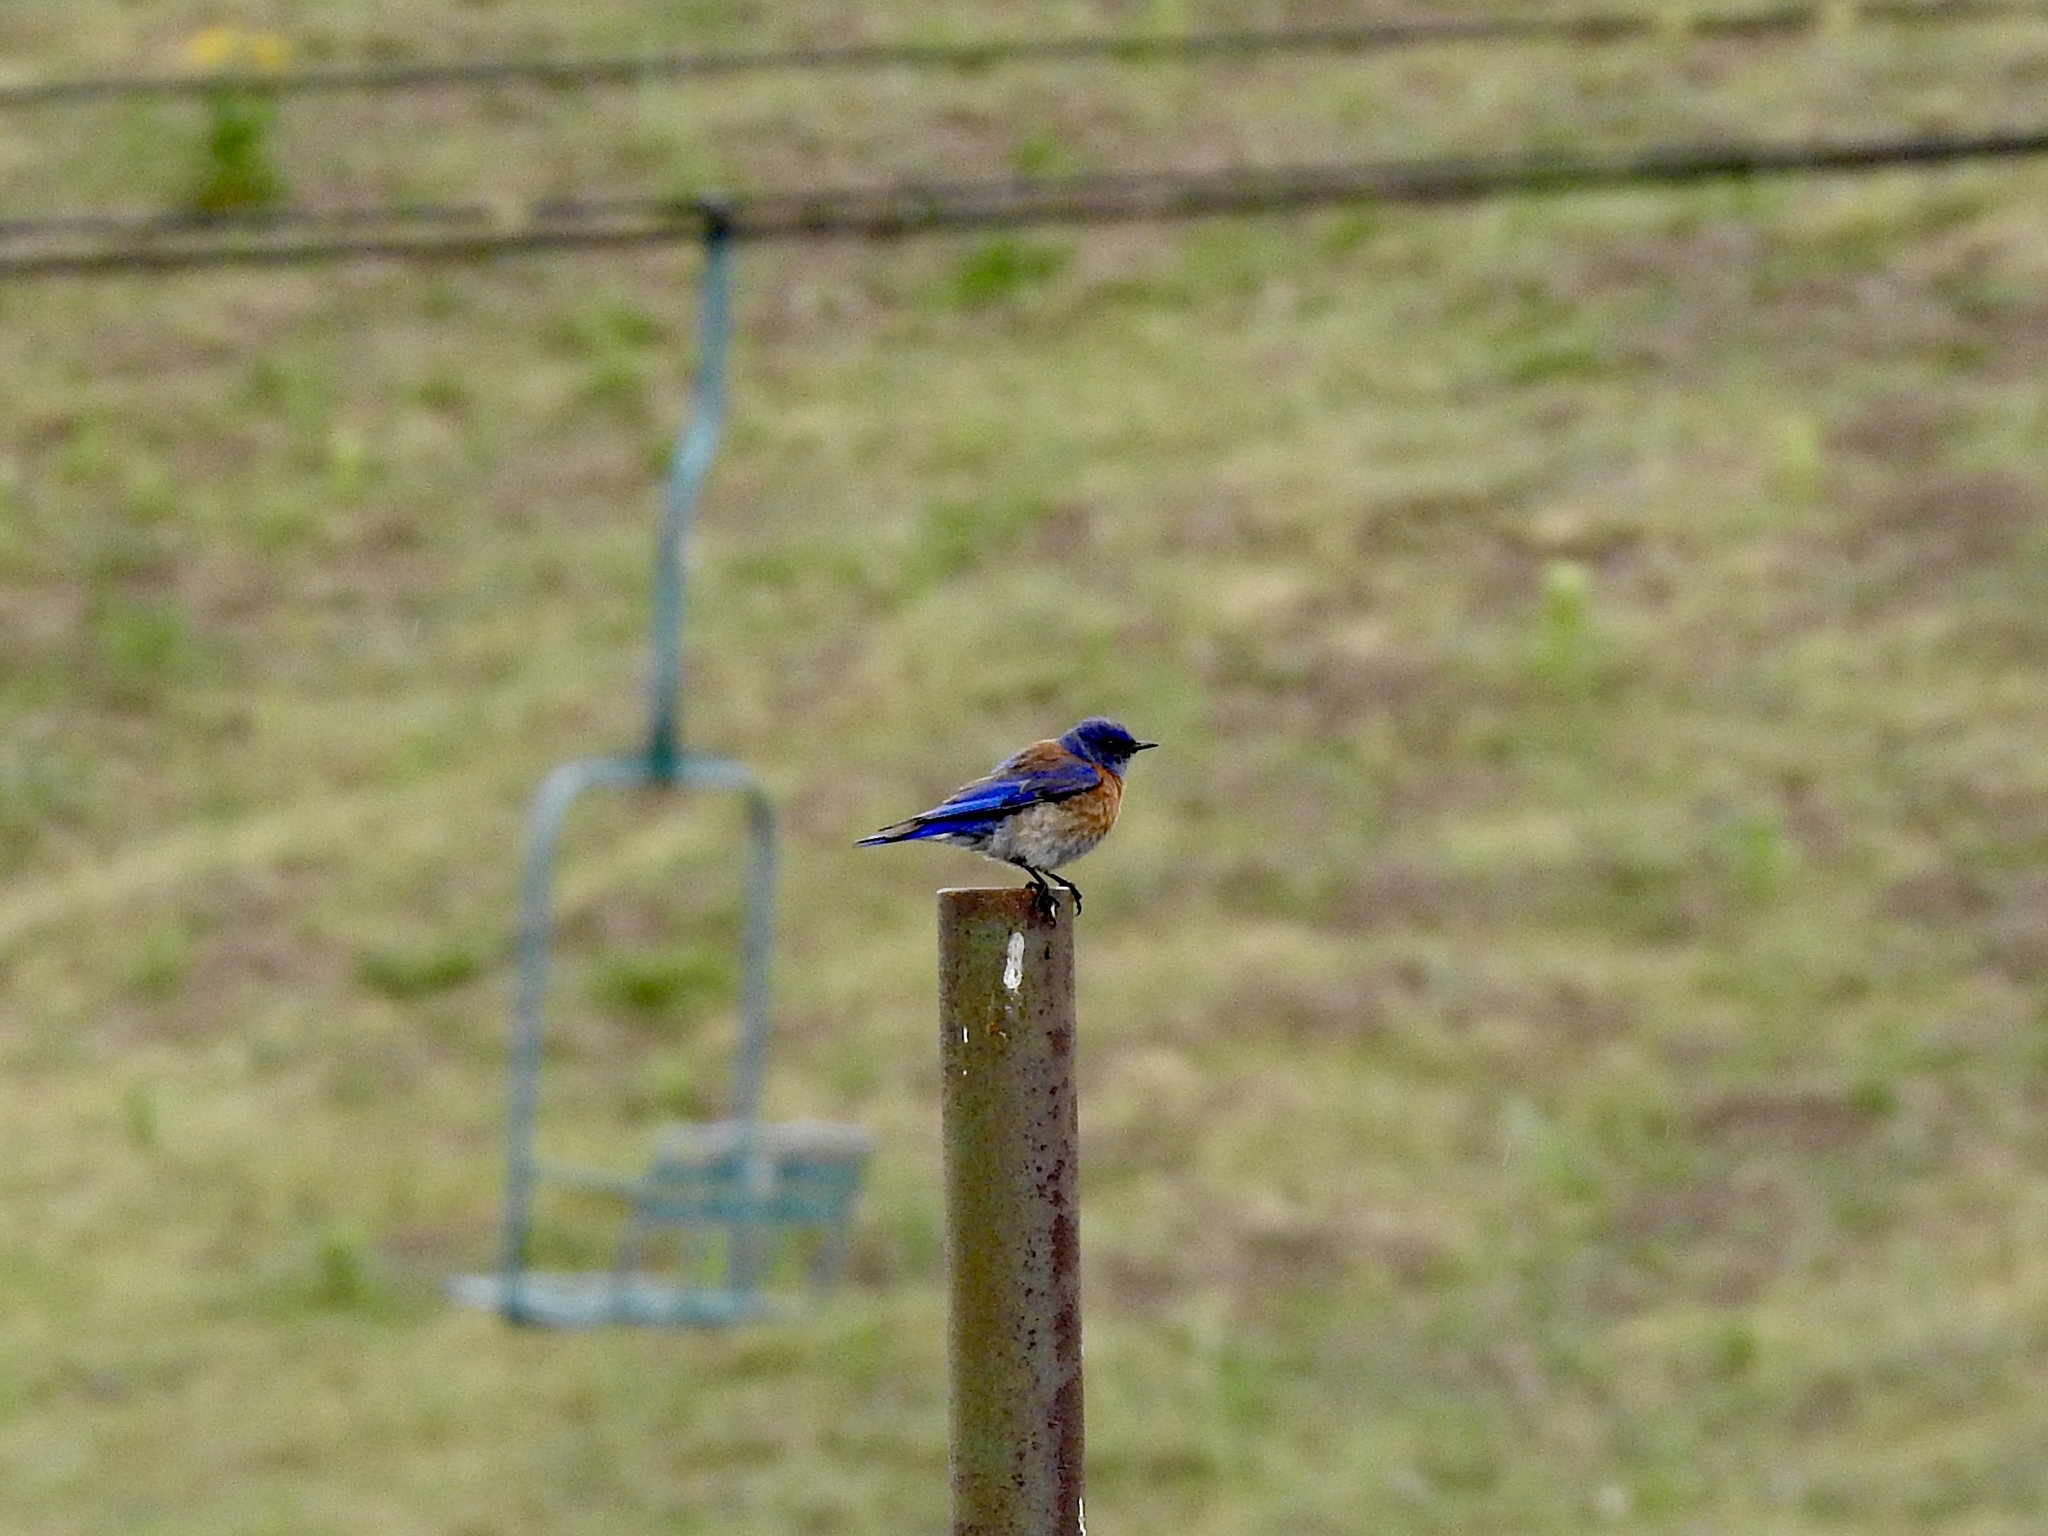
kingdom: Animalia
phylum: Chordata
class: Aves
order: Passeriformes
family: Turdidae
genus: Sialia
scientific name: Sialia mexicana
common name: Western bluebird
